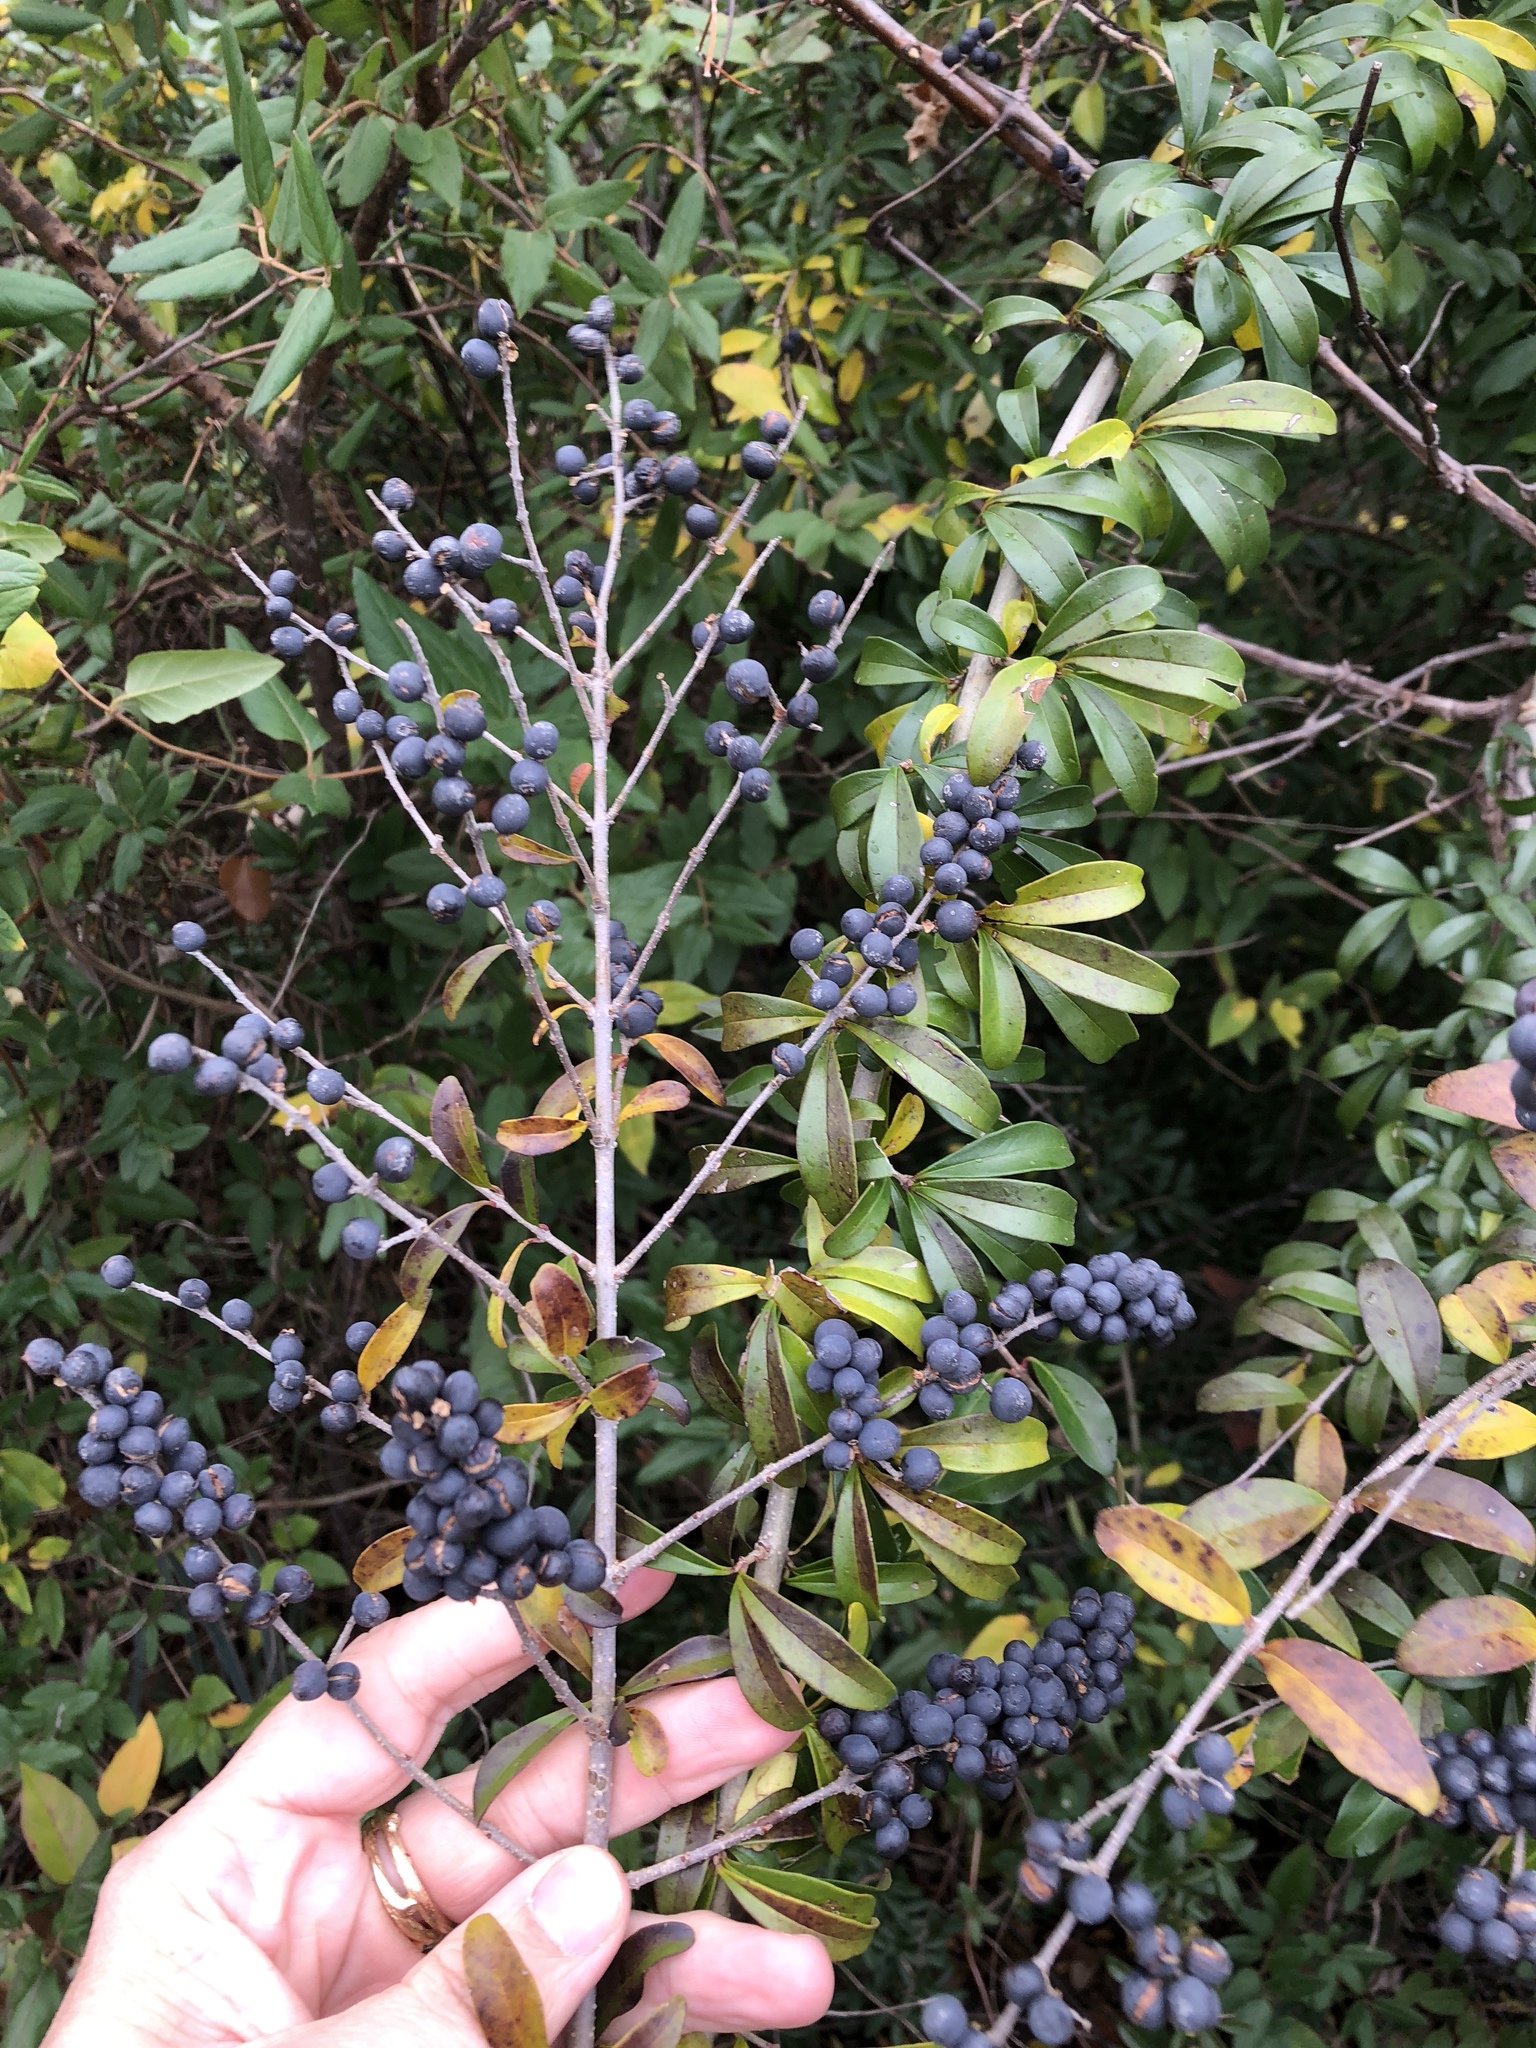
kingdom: Plantae
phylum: Tracheophyta
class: Magnoliopsida
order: Lamiales
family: Oleaceae
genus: Ligustrum
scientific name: Ligustrum quihoui
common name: Waxyleaf privet
